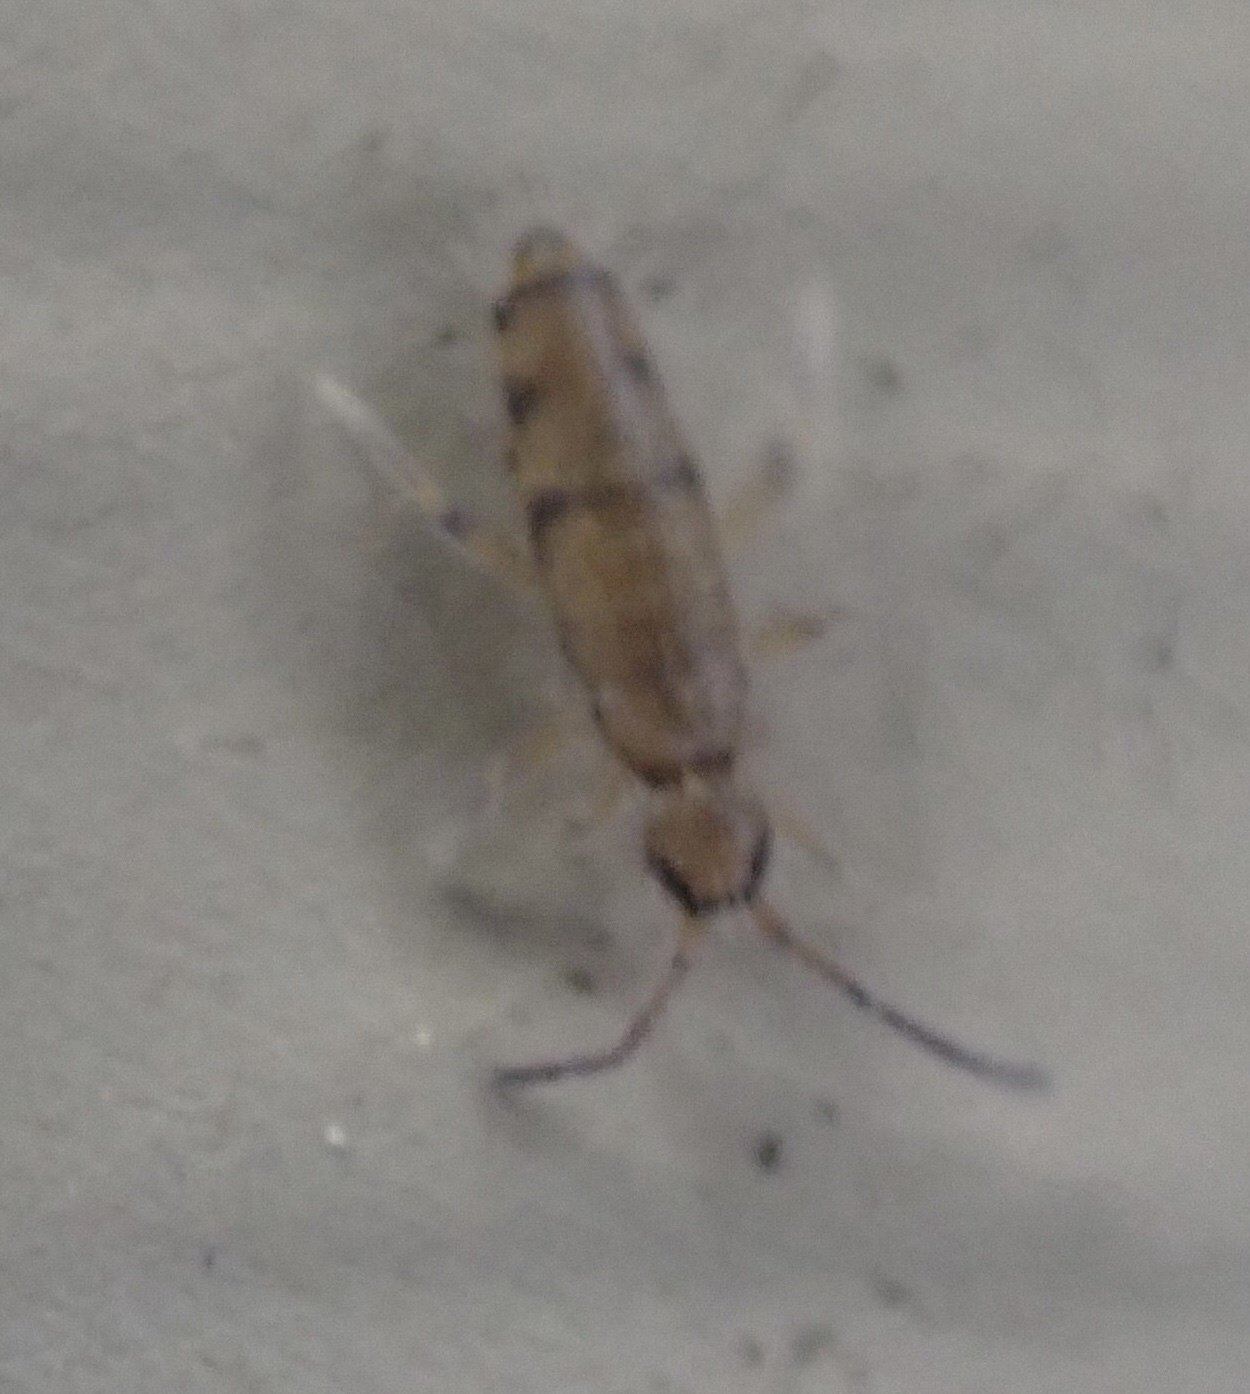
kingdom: Animalia
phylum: Arthropoda
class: Collembola
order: Entomobryomorpha
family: Entomobryidae
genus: Willowsia
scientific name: Willowsia nigromaculata
